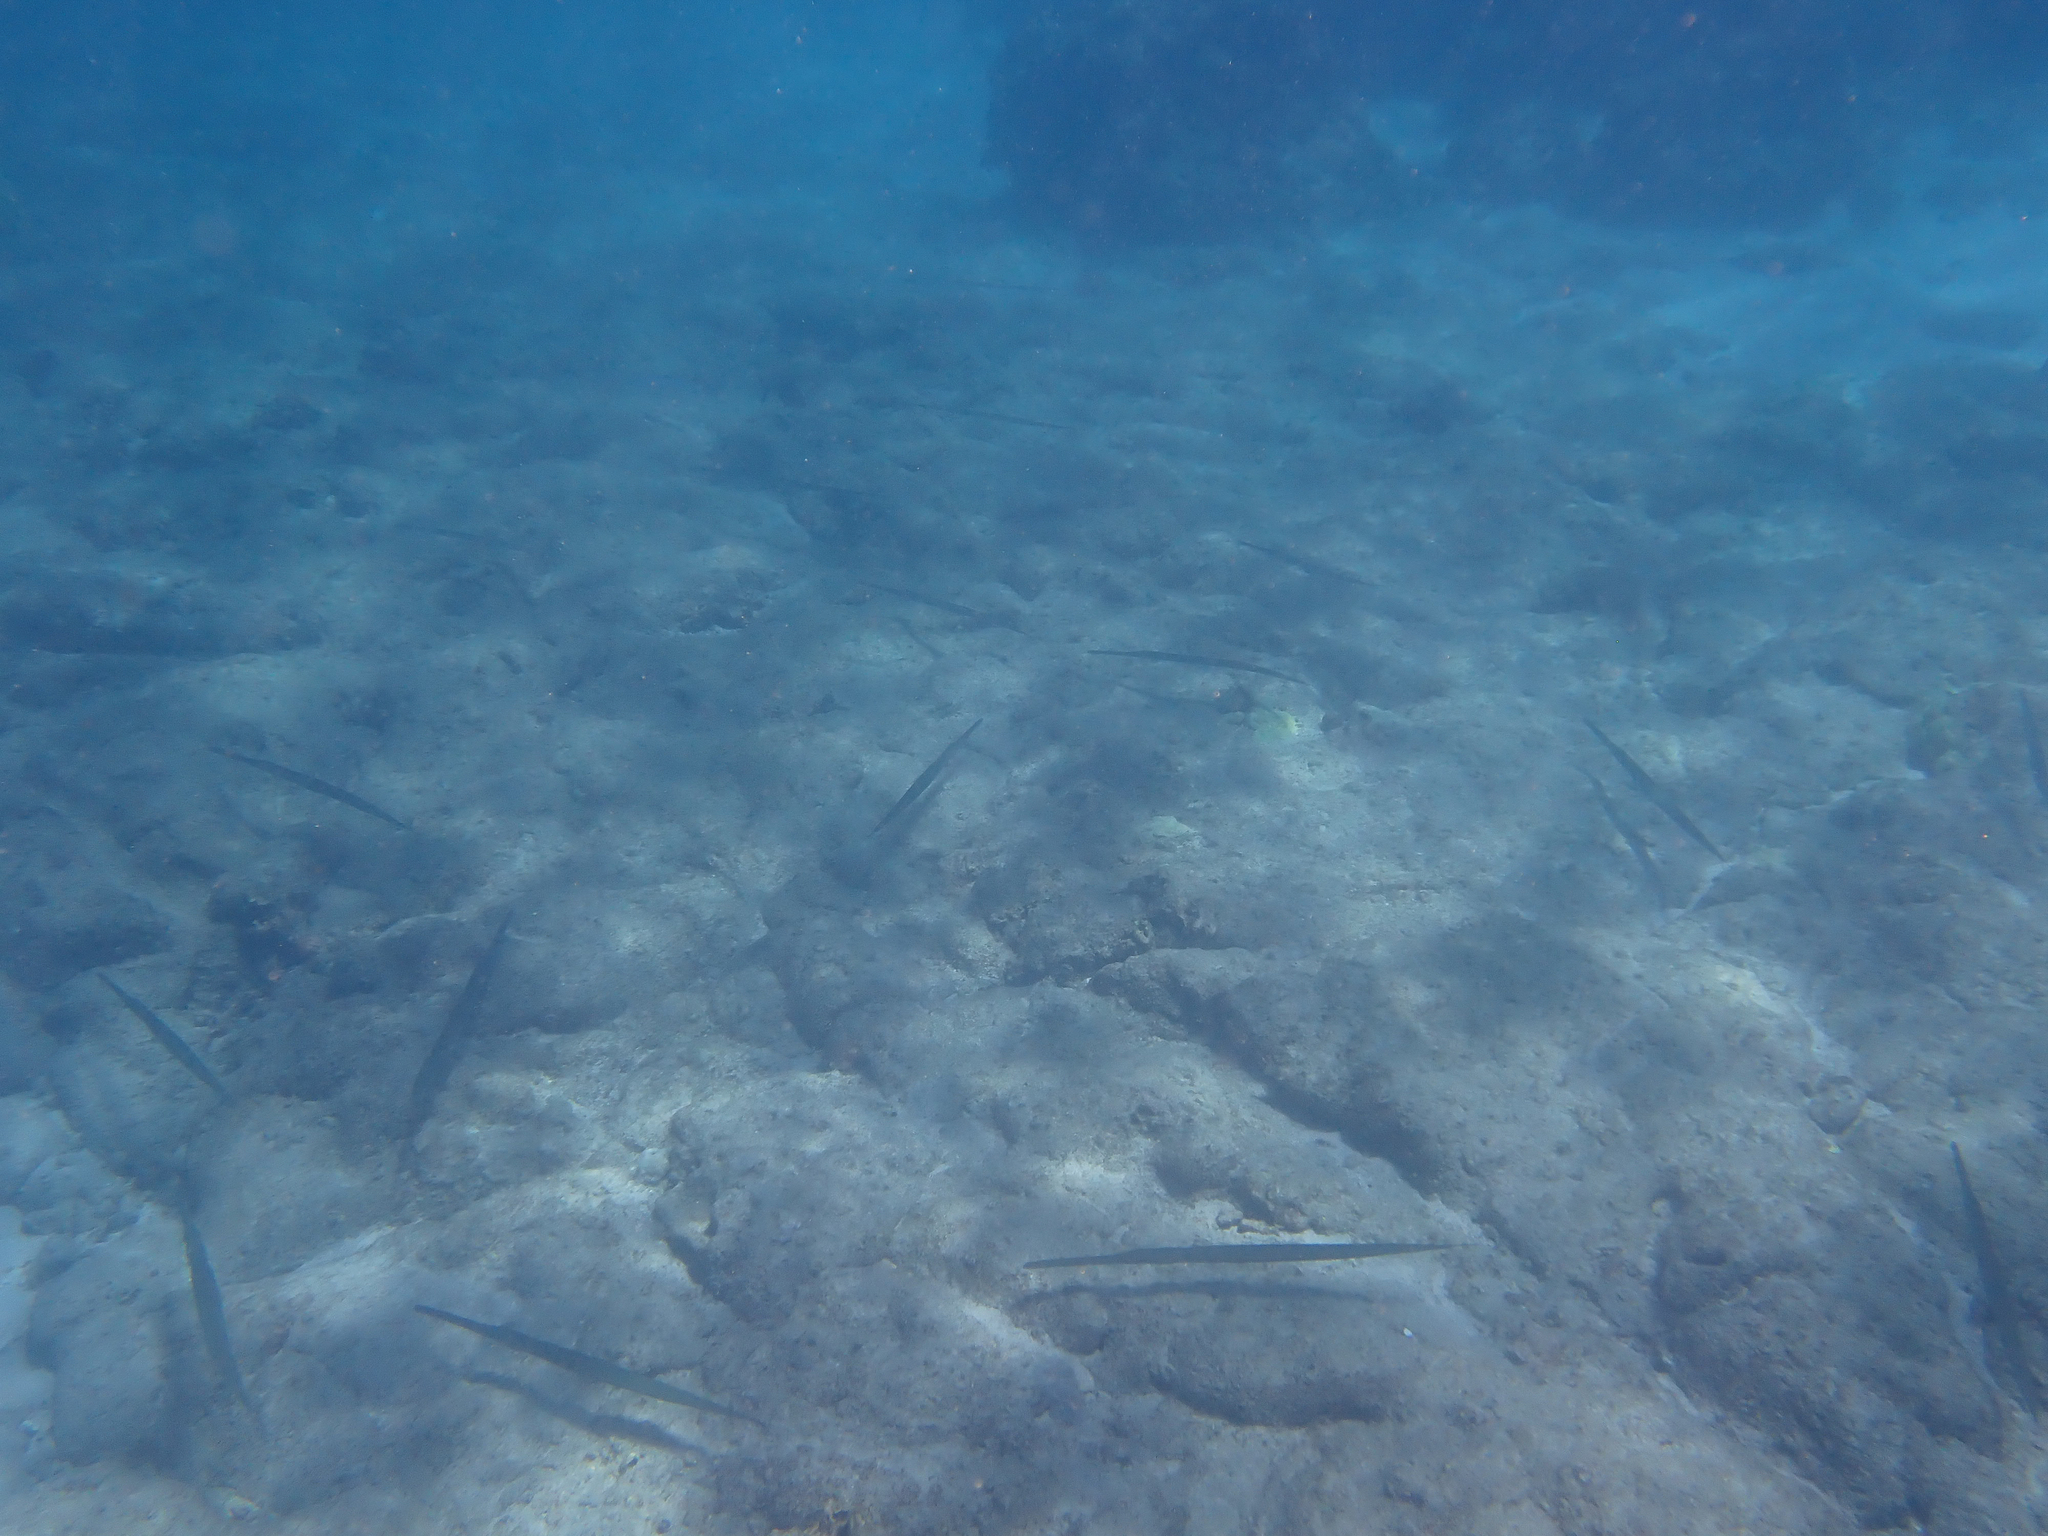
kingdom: Animalia
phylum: Chordata
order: Syngnathiformes
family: Fistulariidae
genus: Fistularia
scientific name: Fistularia commersonii
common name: Bluespotted cornetfish
